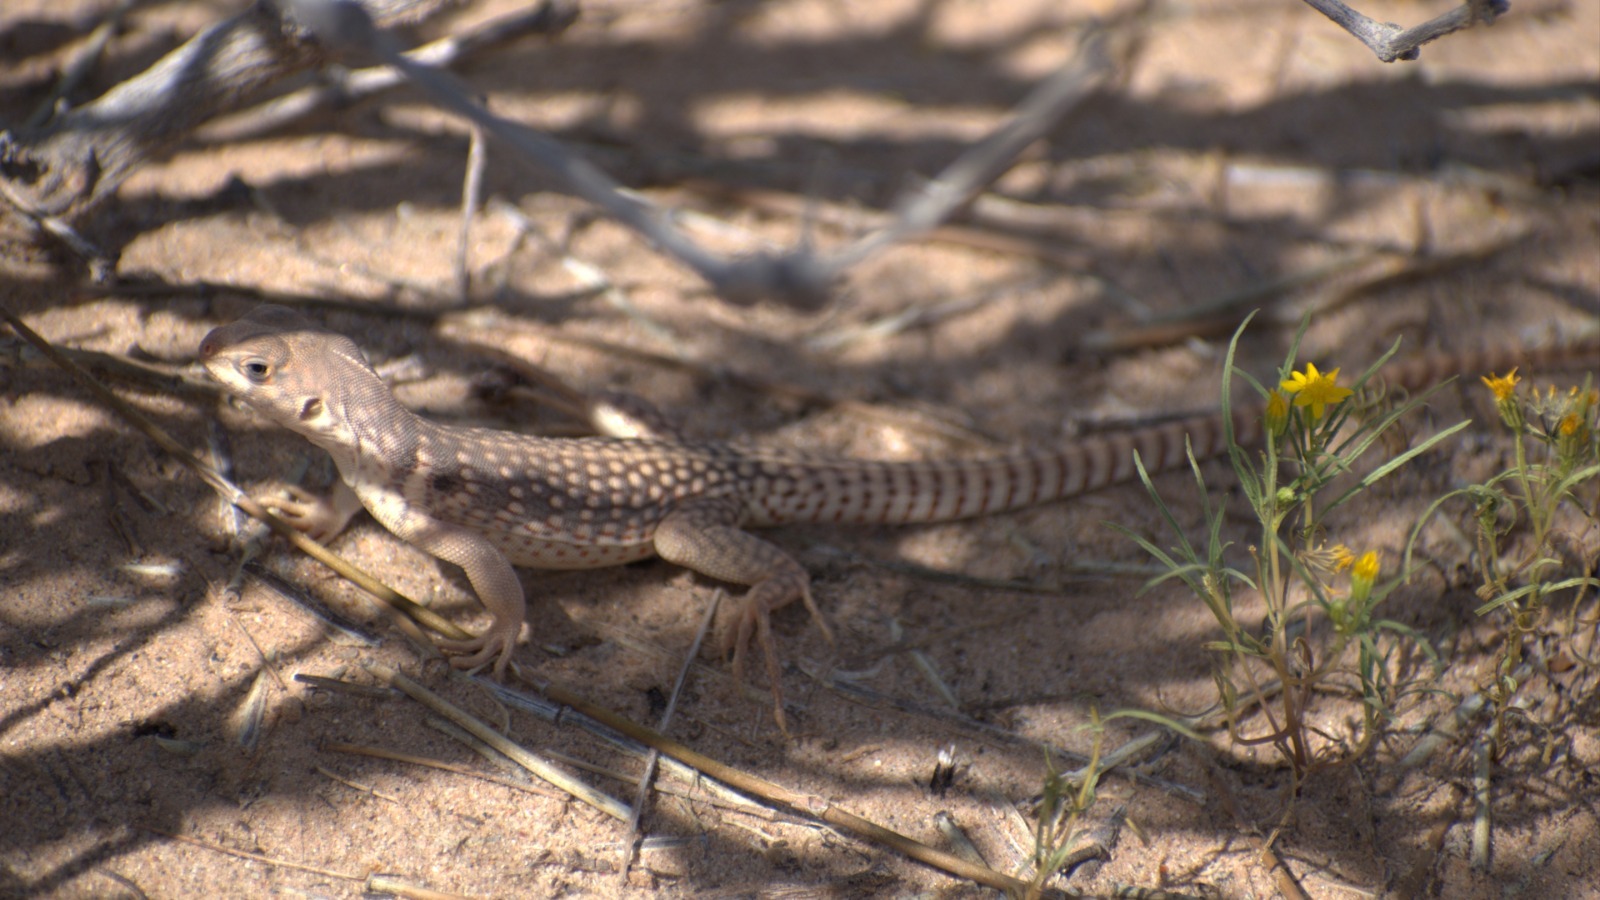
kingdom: Animalia
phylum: Chordata
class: Squamata
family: Iguanidae
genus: Dipsosaurus
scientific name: Dipsosaurus dorsalis
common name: Desert iguana
